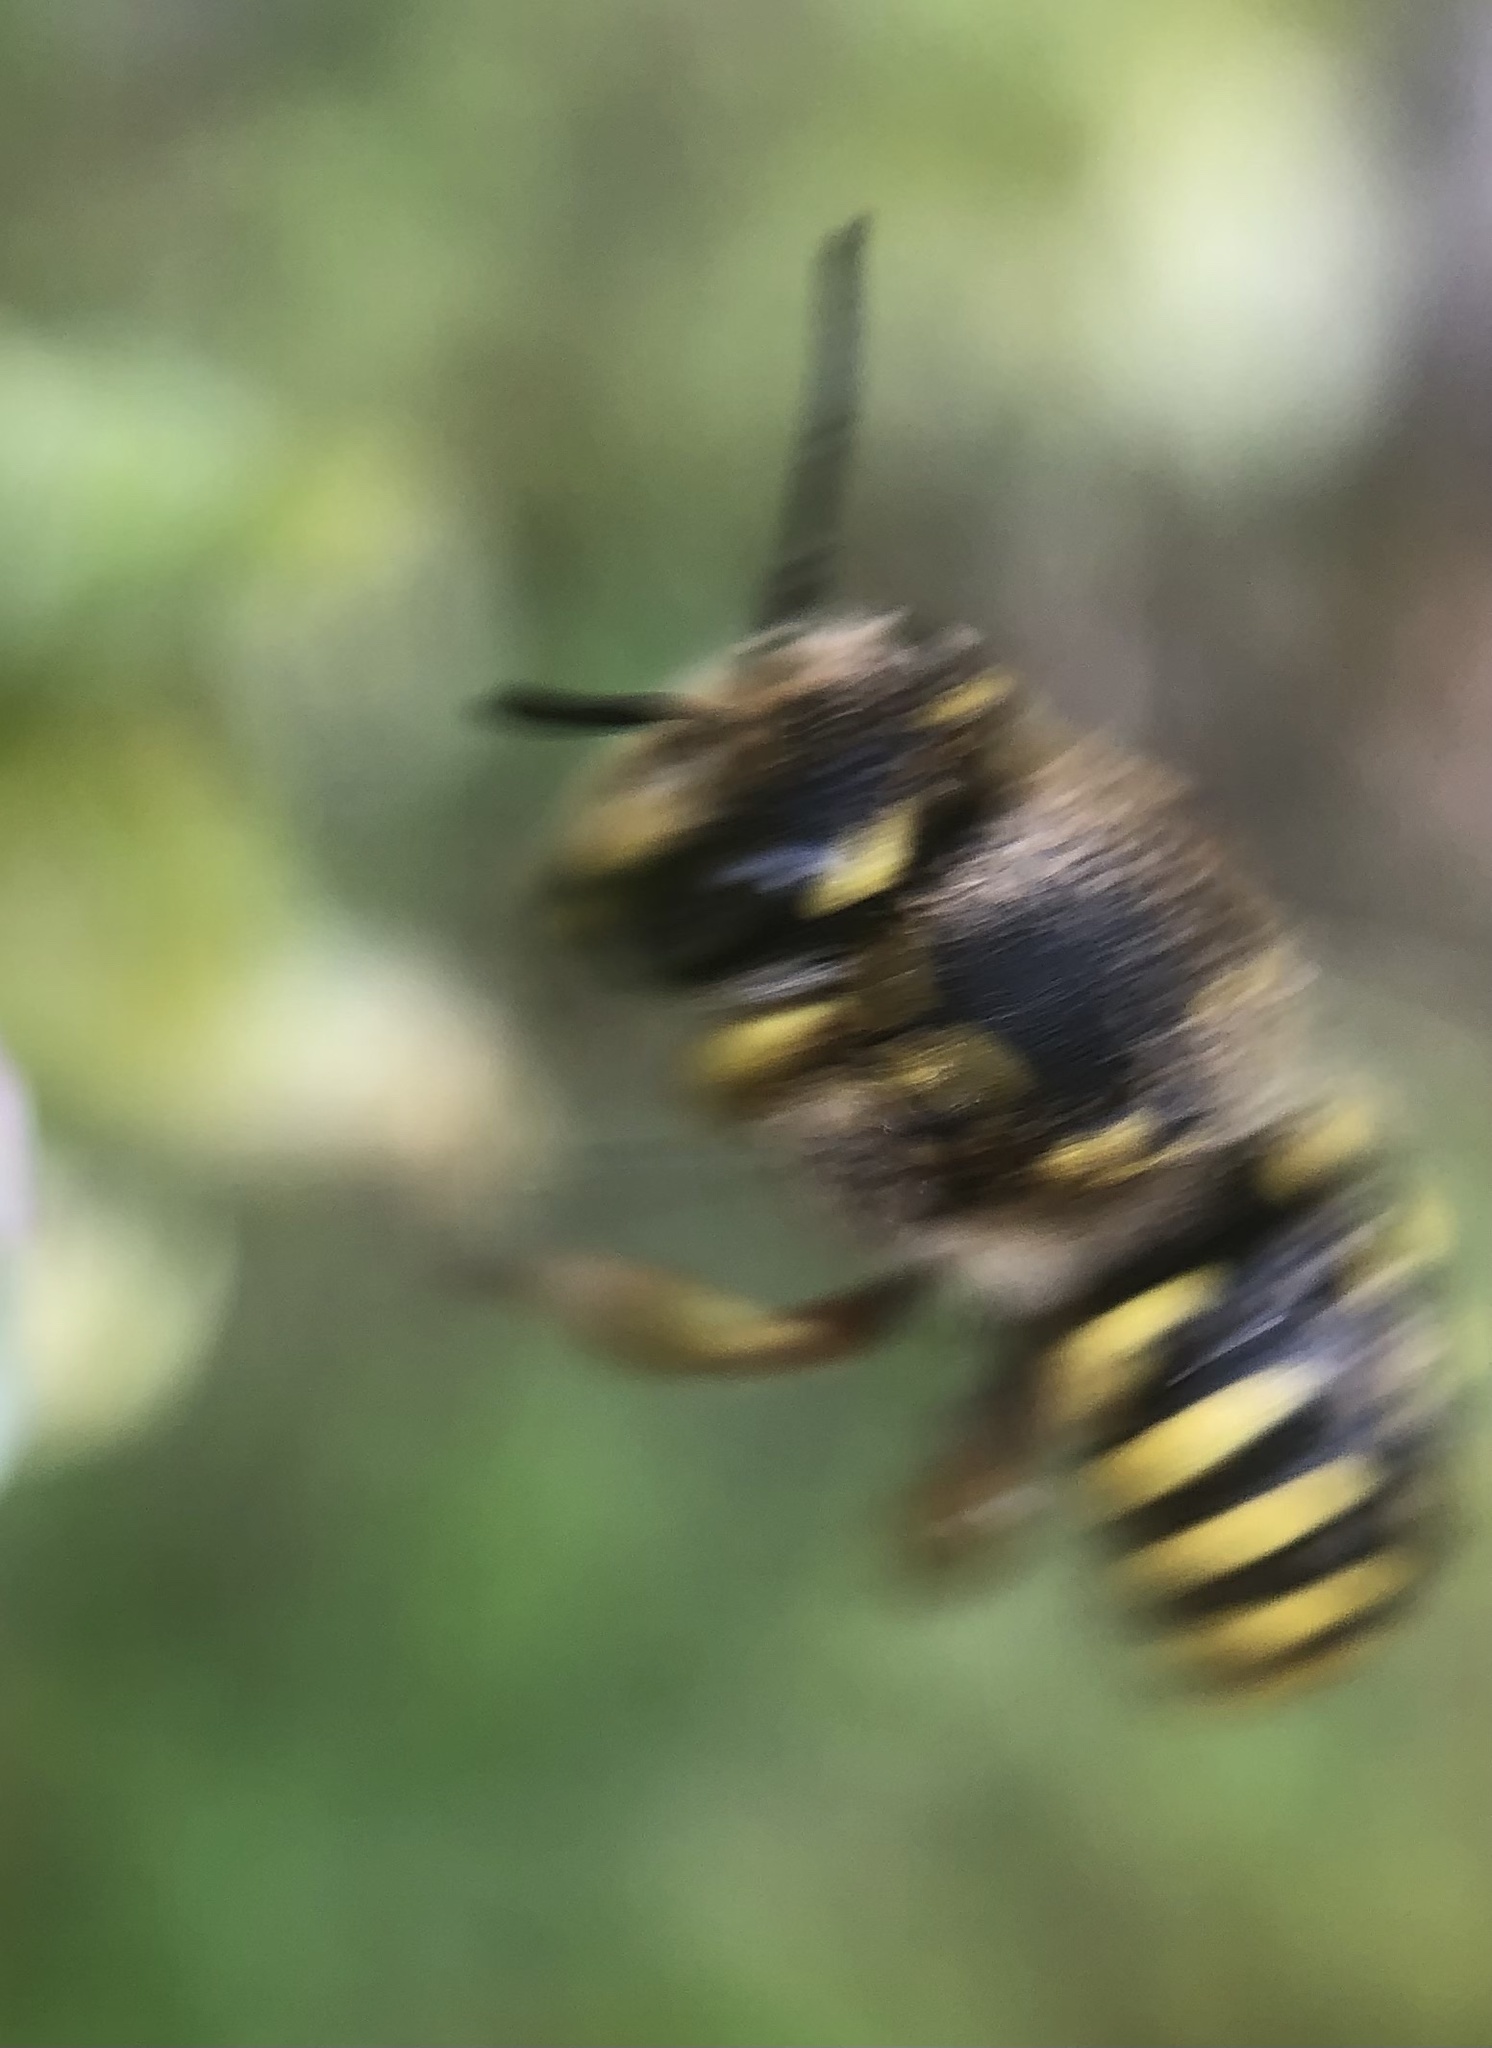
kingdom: Animalia
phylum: Arthropoda
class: Insecta
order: Hymenoptera
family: Megachilidae
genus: Anthidium
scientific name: Anthidium manicatum
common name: Wool carder bee
